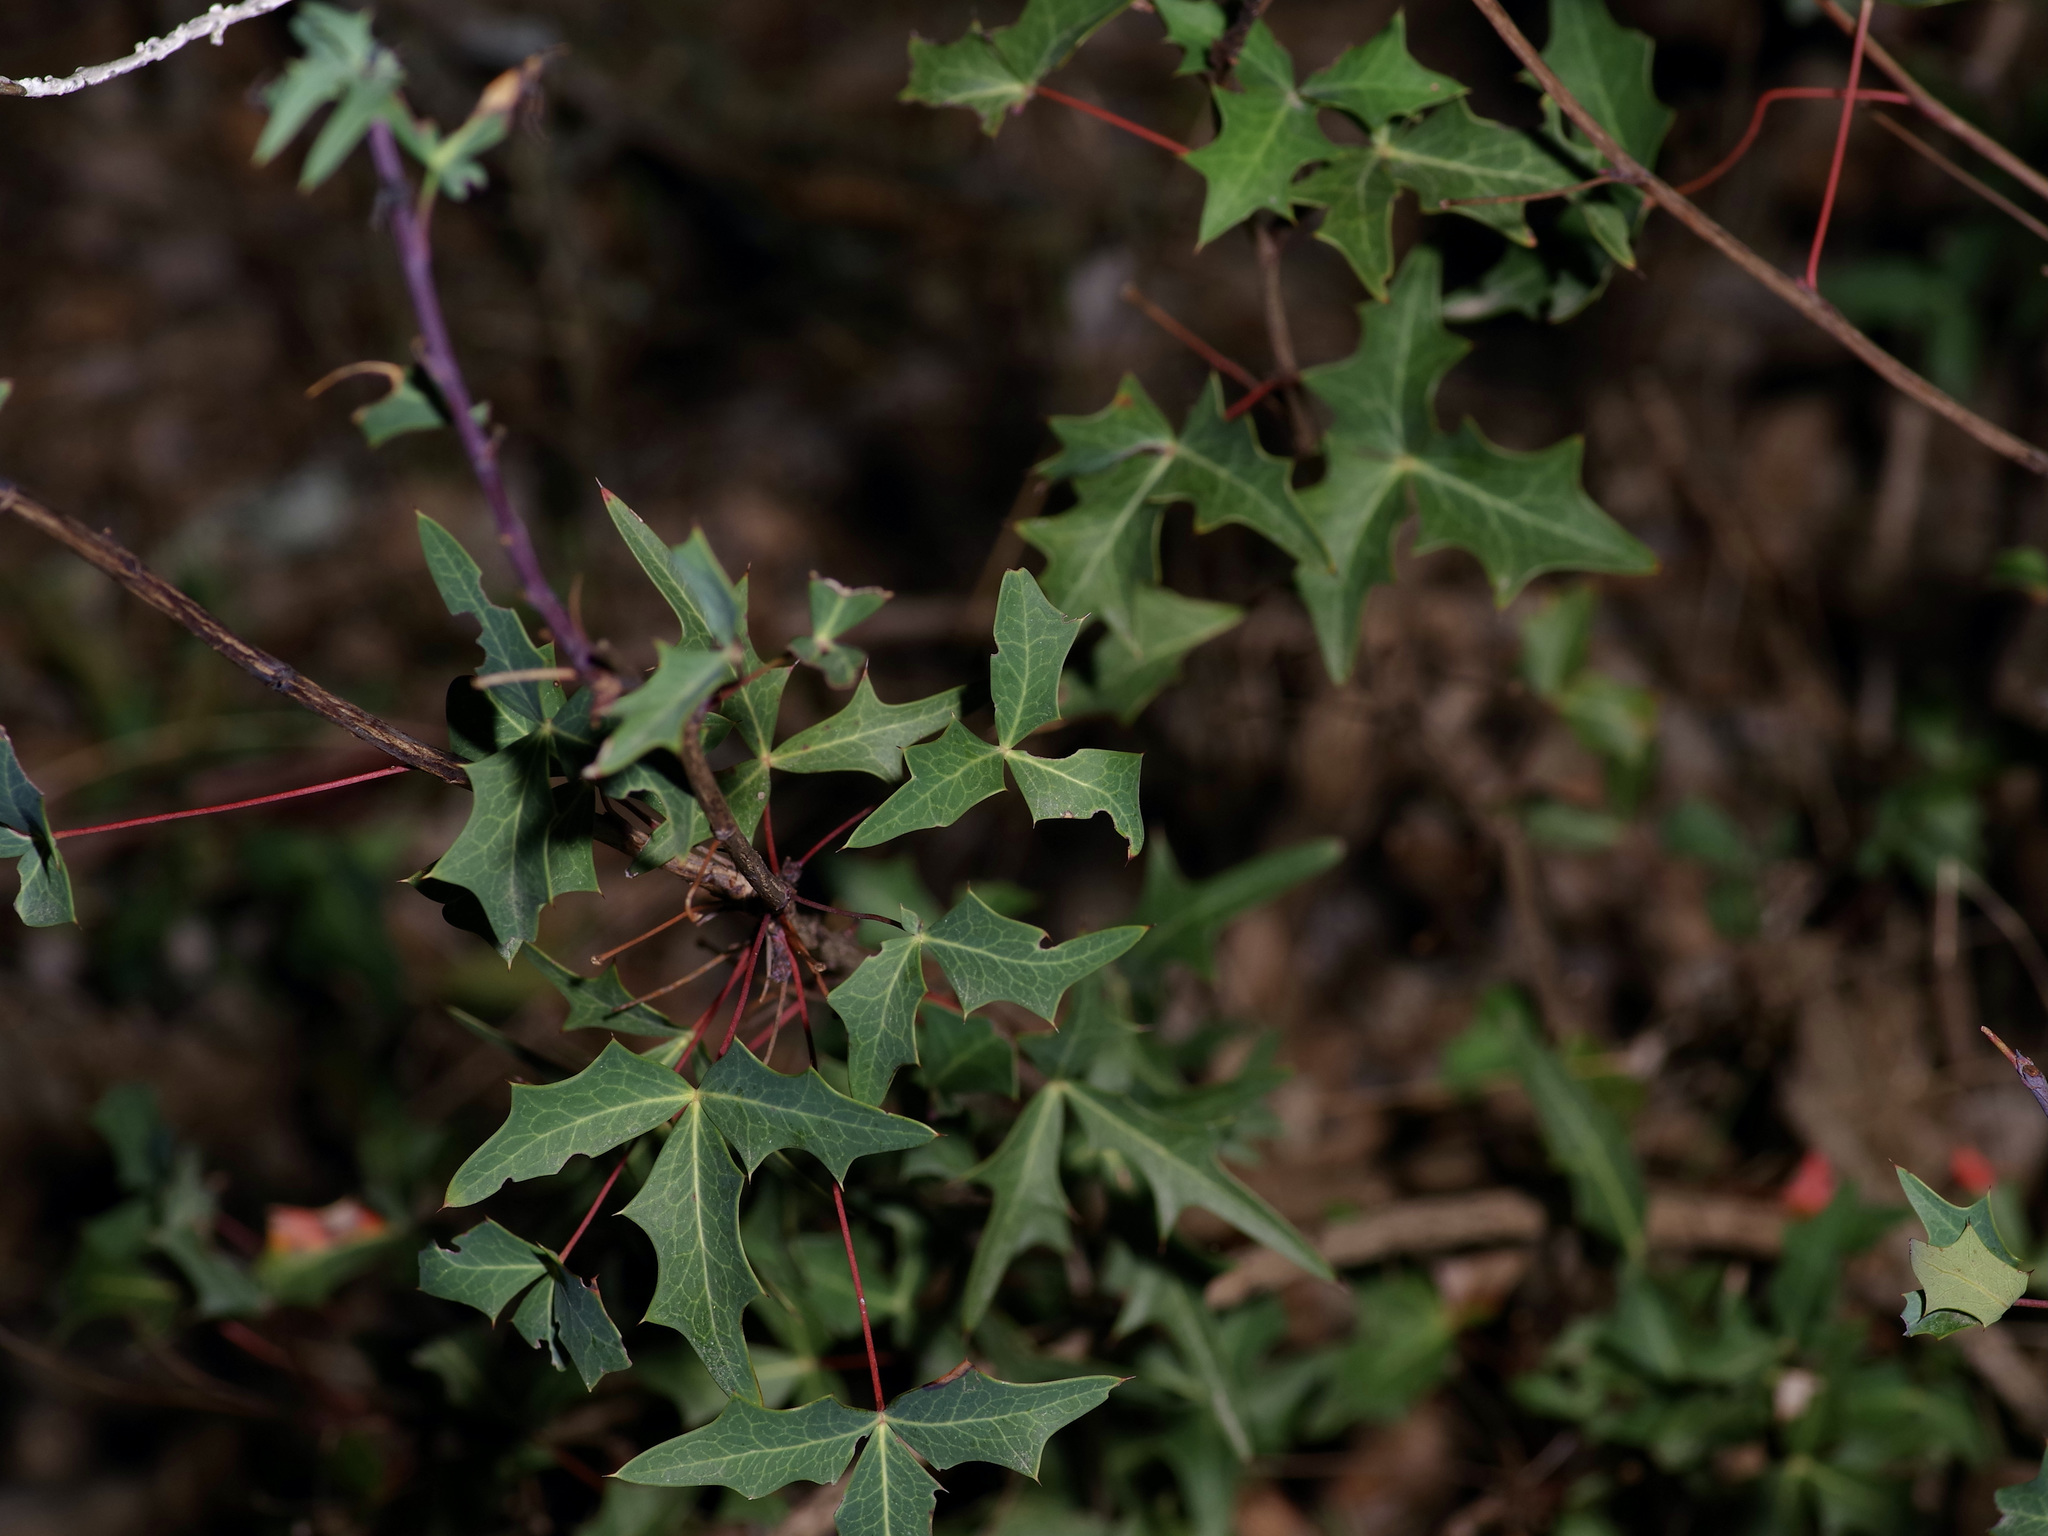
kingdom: Plantae
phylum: Tracheophyta
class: Magnoliopsida
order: Ranunculales
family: Berberidaceae
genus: Alloberberis
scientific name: Alloberberis trifoliolata
